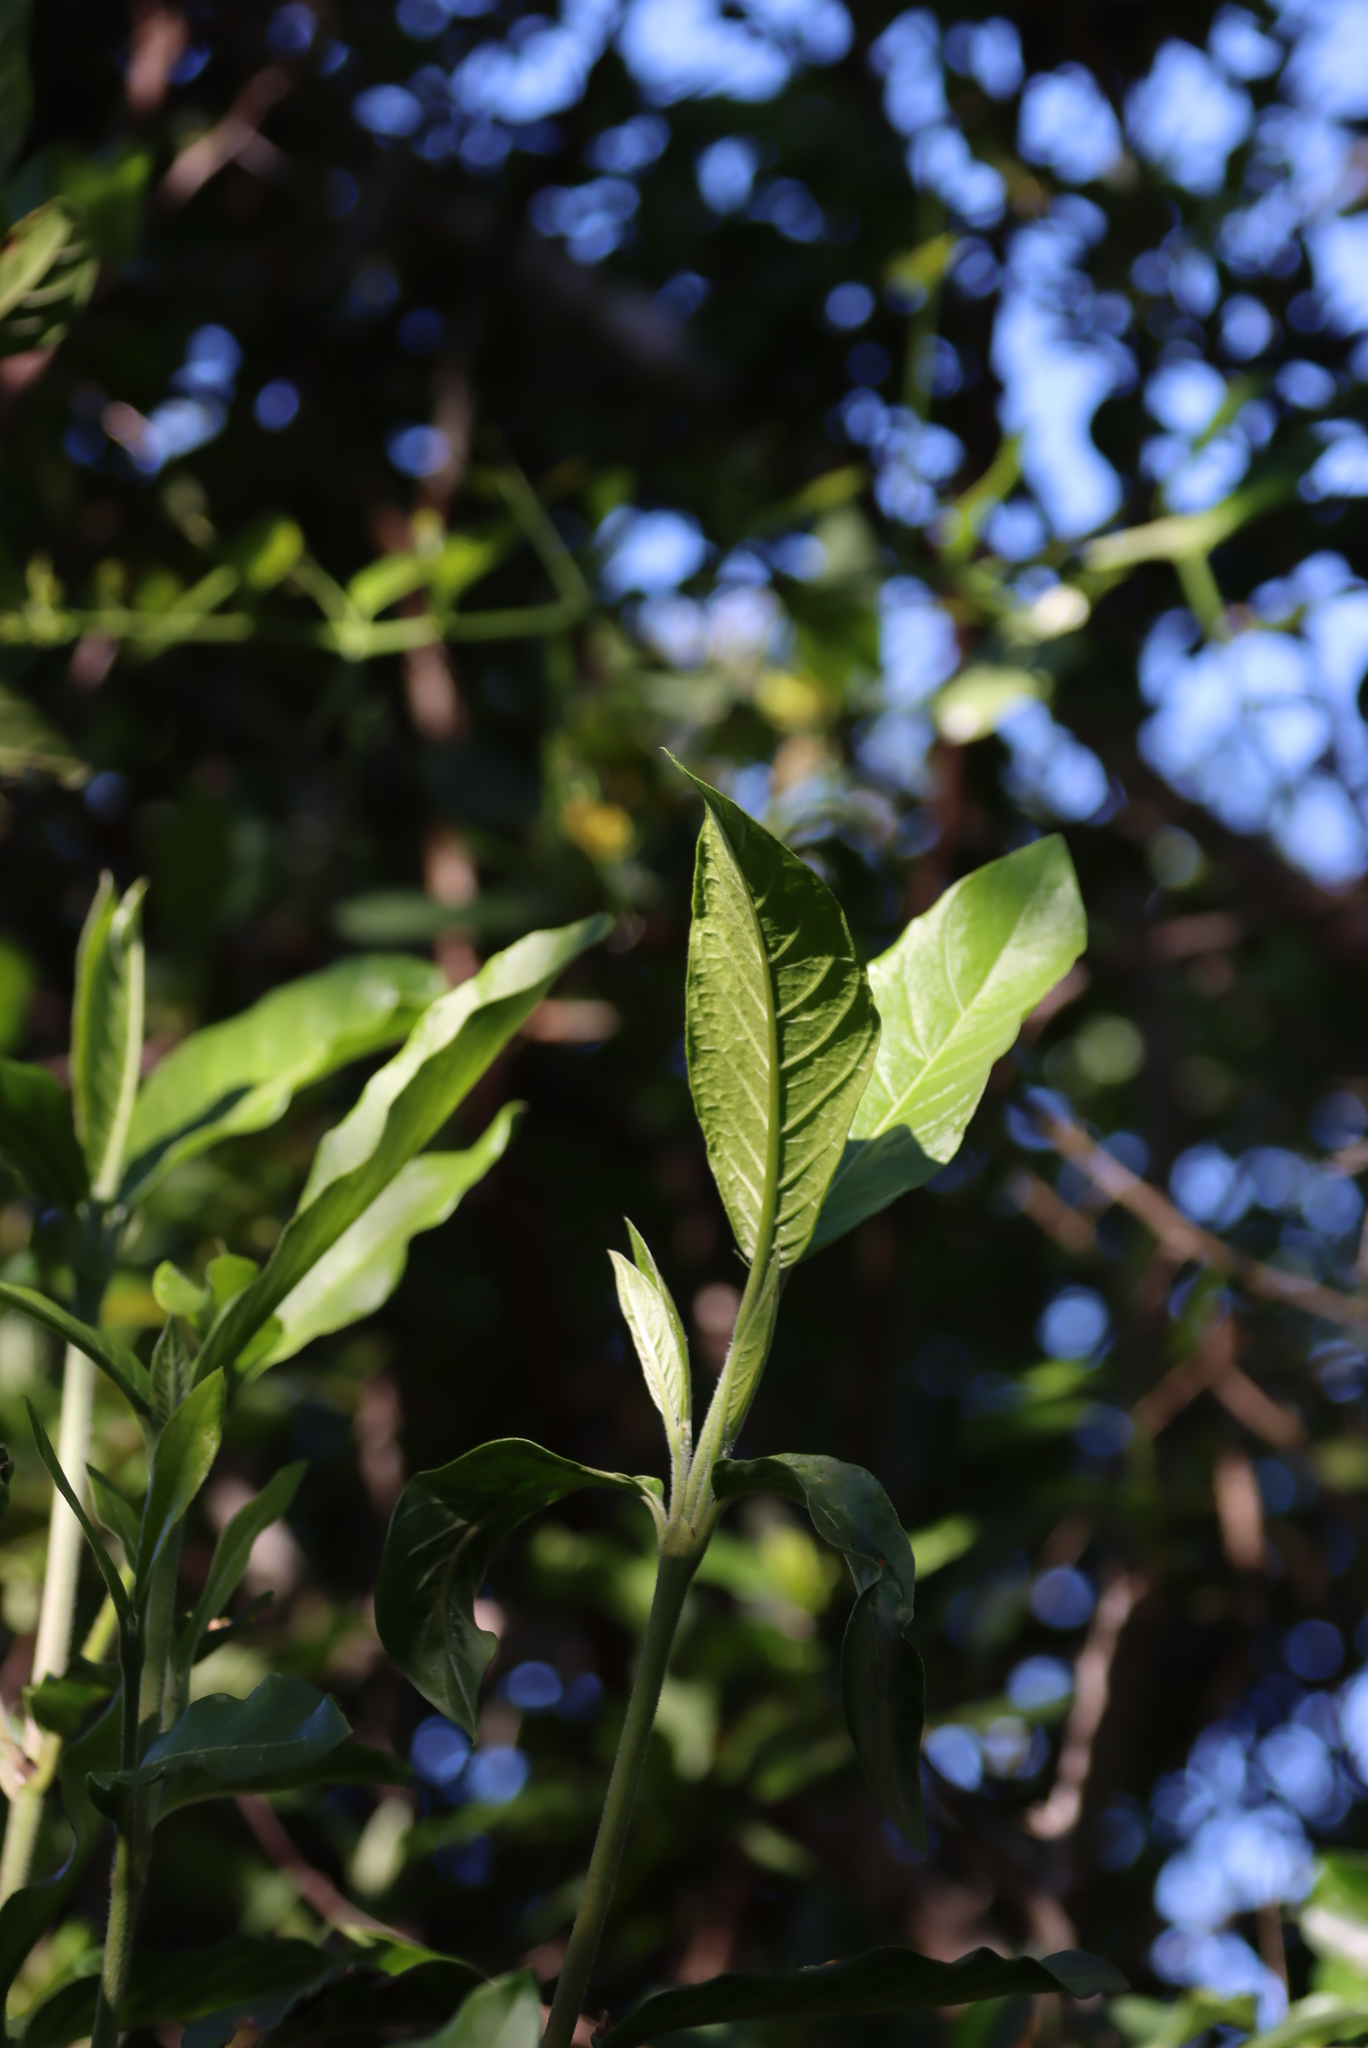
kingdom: Plantae
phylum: Tracheophyta
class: Magnoliopsida
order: Gentianales
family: Rubiaceae
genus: Burchellia
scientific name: Burchellia bubalina
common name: Wild pomegranate
